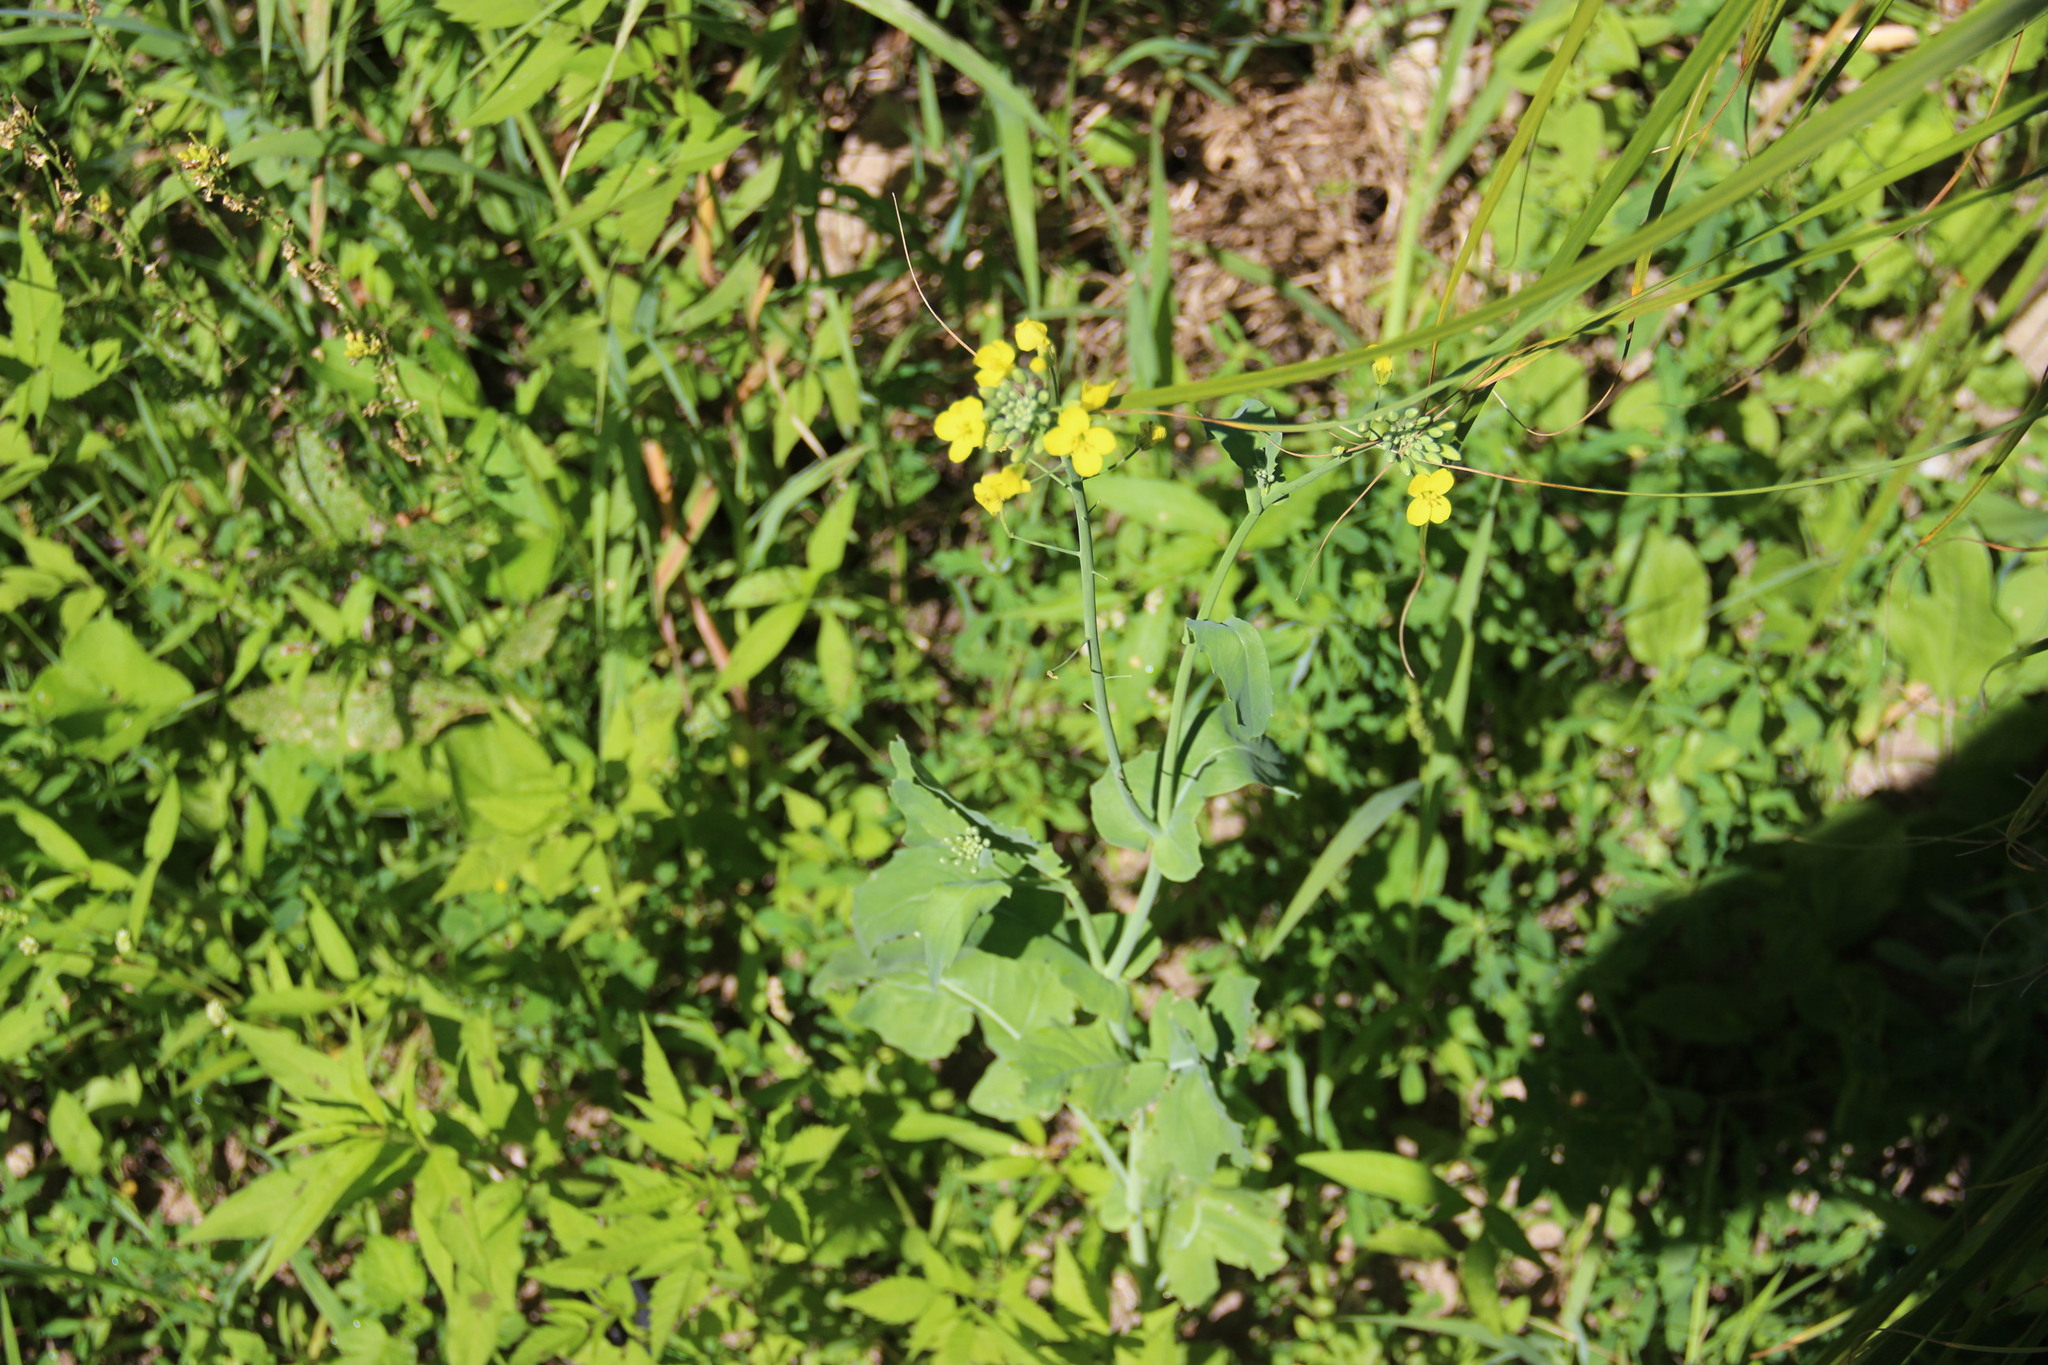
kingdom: Plantae
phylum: Tracheophyta
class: Magnoliopsida
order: Brassicales
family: Brassicaceae
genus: Brassica
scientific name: Brassica napus
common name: Rape
